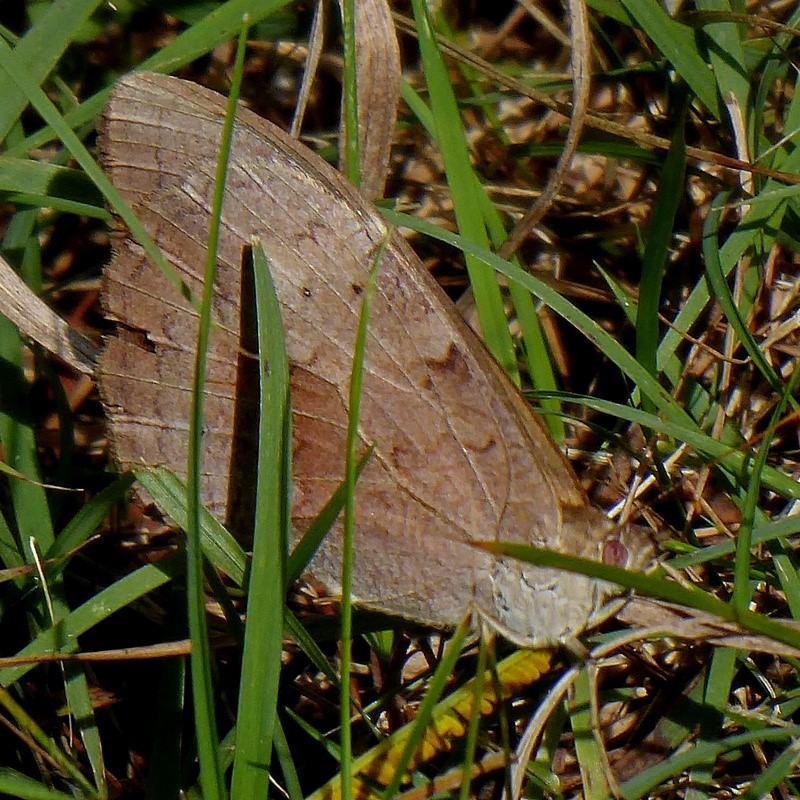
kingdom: Animalia
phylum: Arthropoda
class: Insecta
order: Lepidoptera
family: Nymphalidae
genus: Heteronympha
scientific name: Heteronympha merope
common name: Common brown
